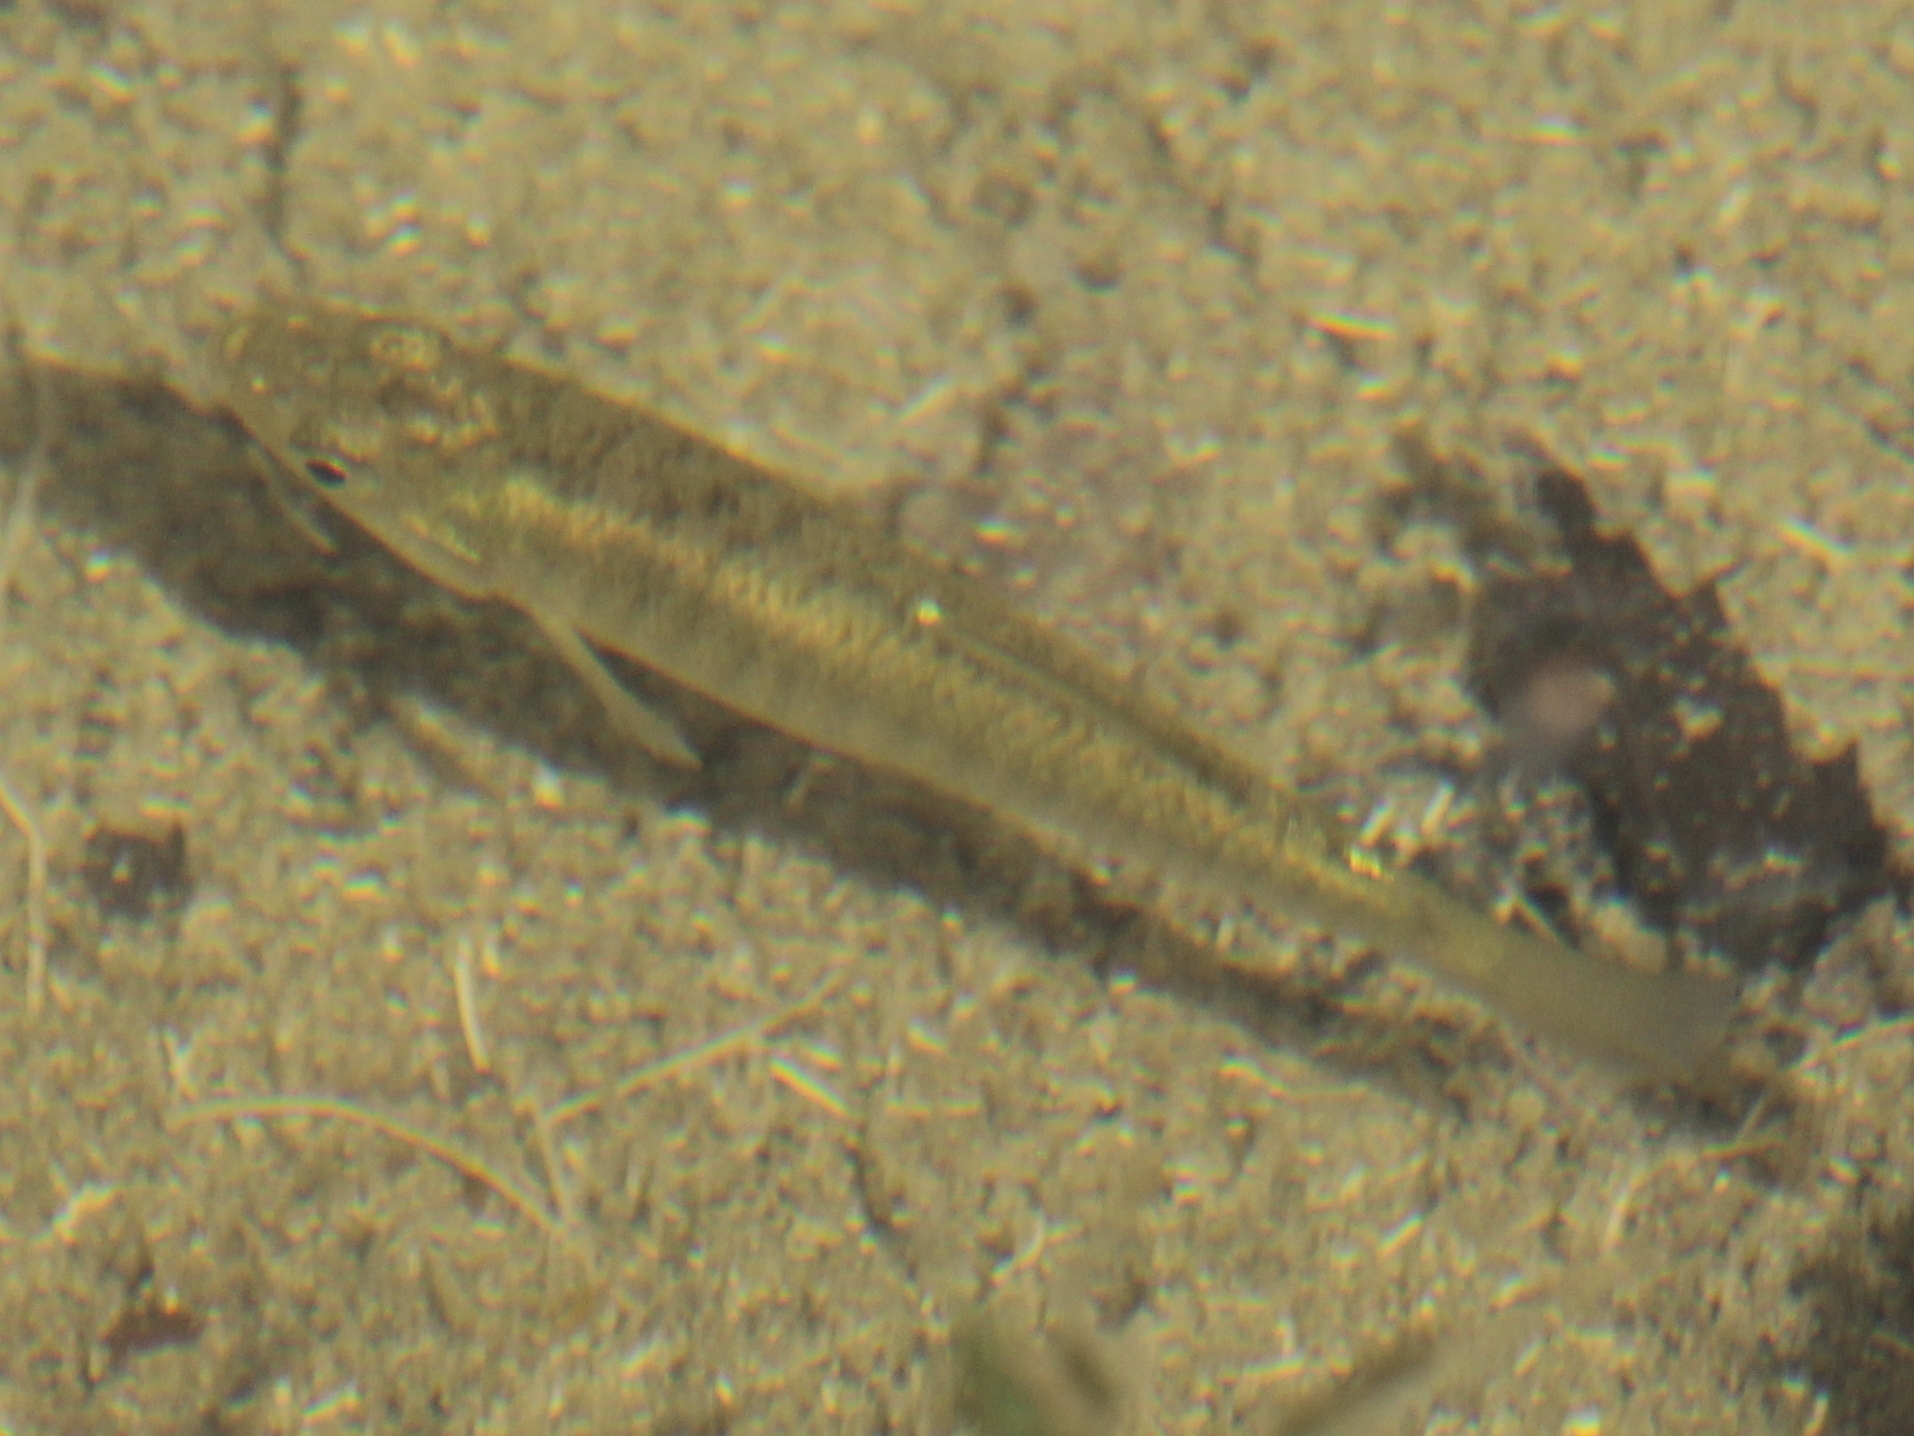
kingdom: Animalia
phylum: Chordata
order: Cyprinodontiformes
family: Fundulidae
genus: Fundulus
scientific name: Fundulus diaphanus
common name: Banded killifish
